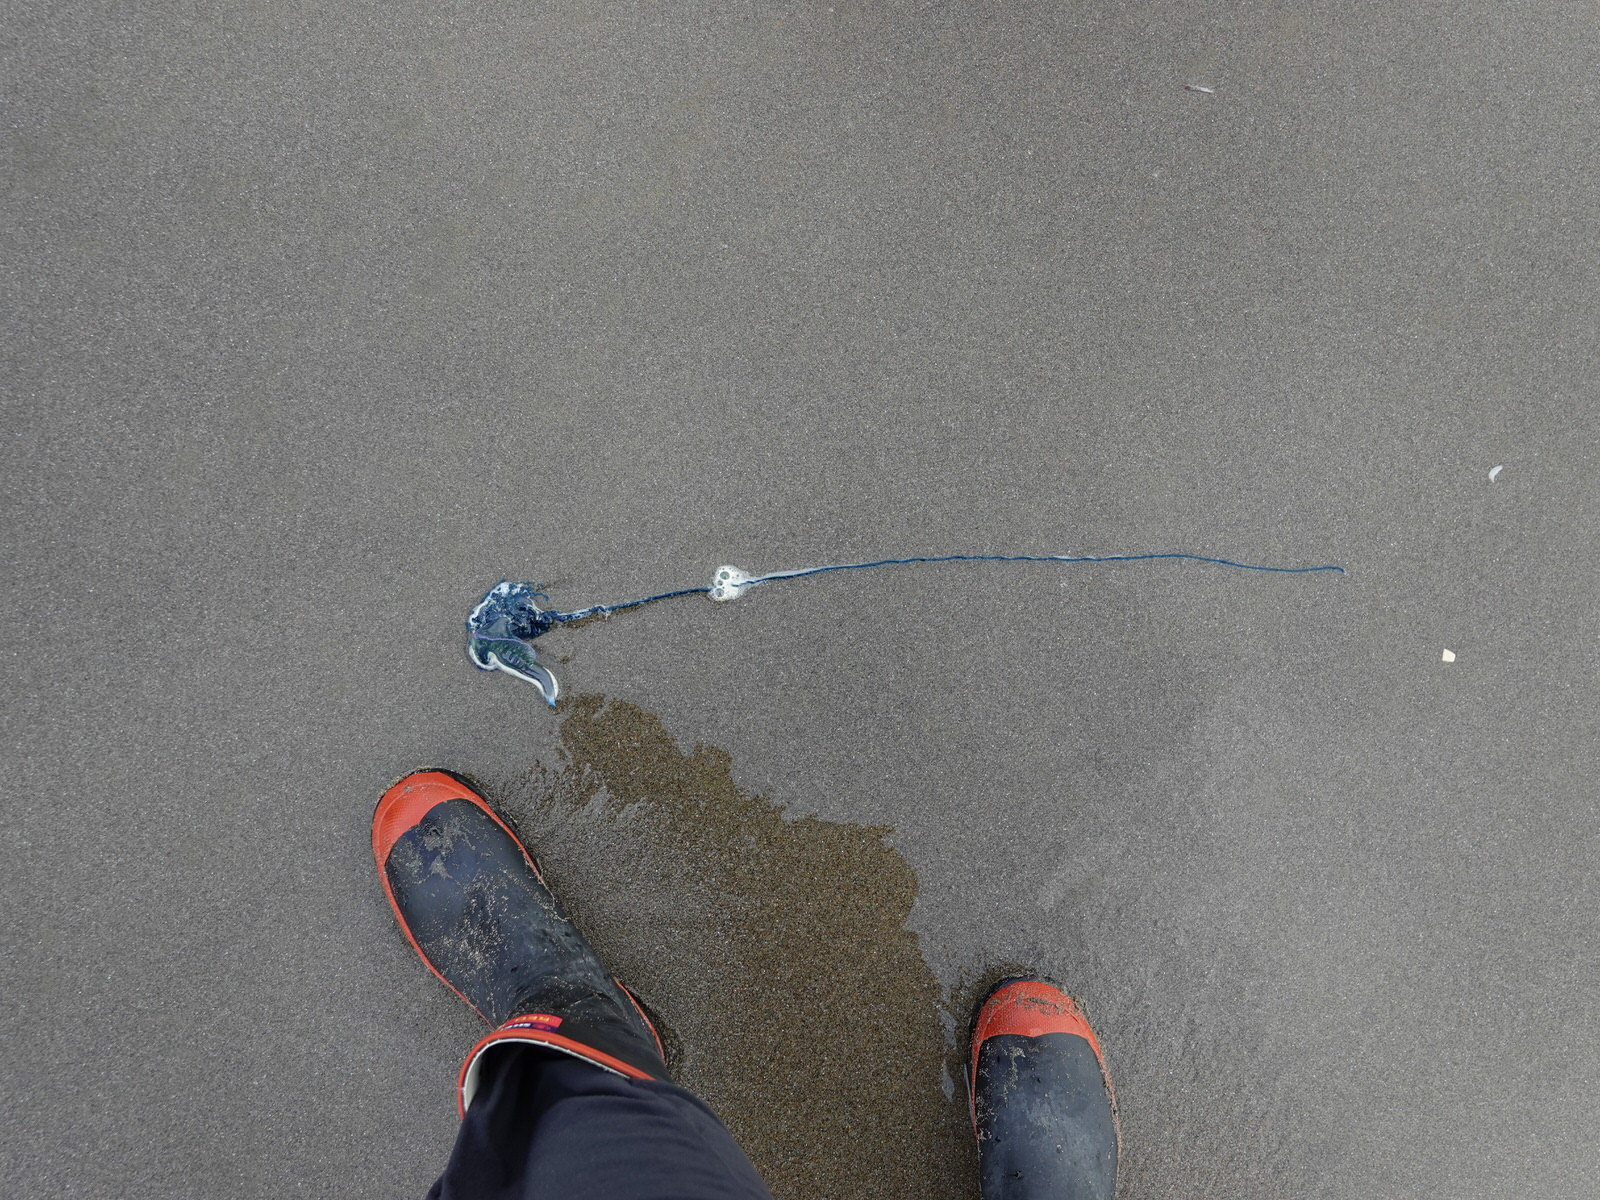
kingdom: Animalia
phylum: Cnidaria
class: Hydrozoa
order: Siphonophorae
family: Physaliidae
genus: Physalia
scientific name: Physalia physalis
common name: Portuguese man-of-war
